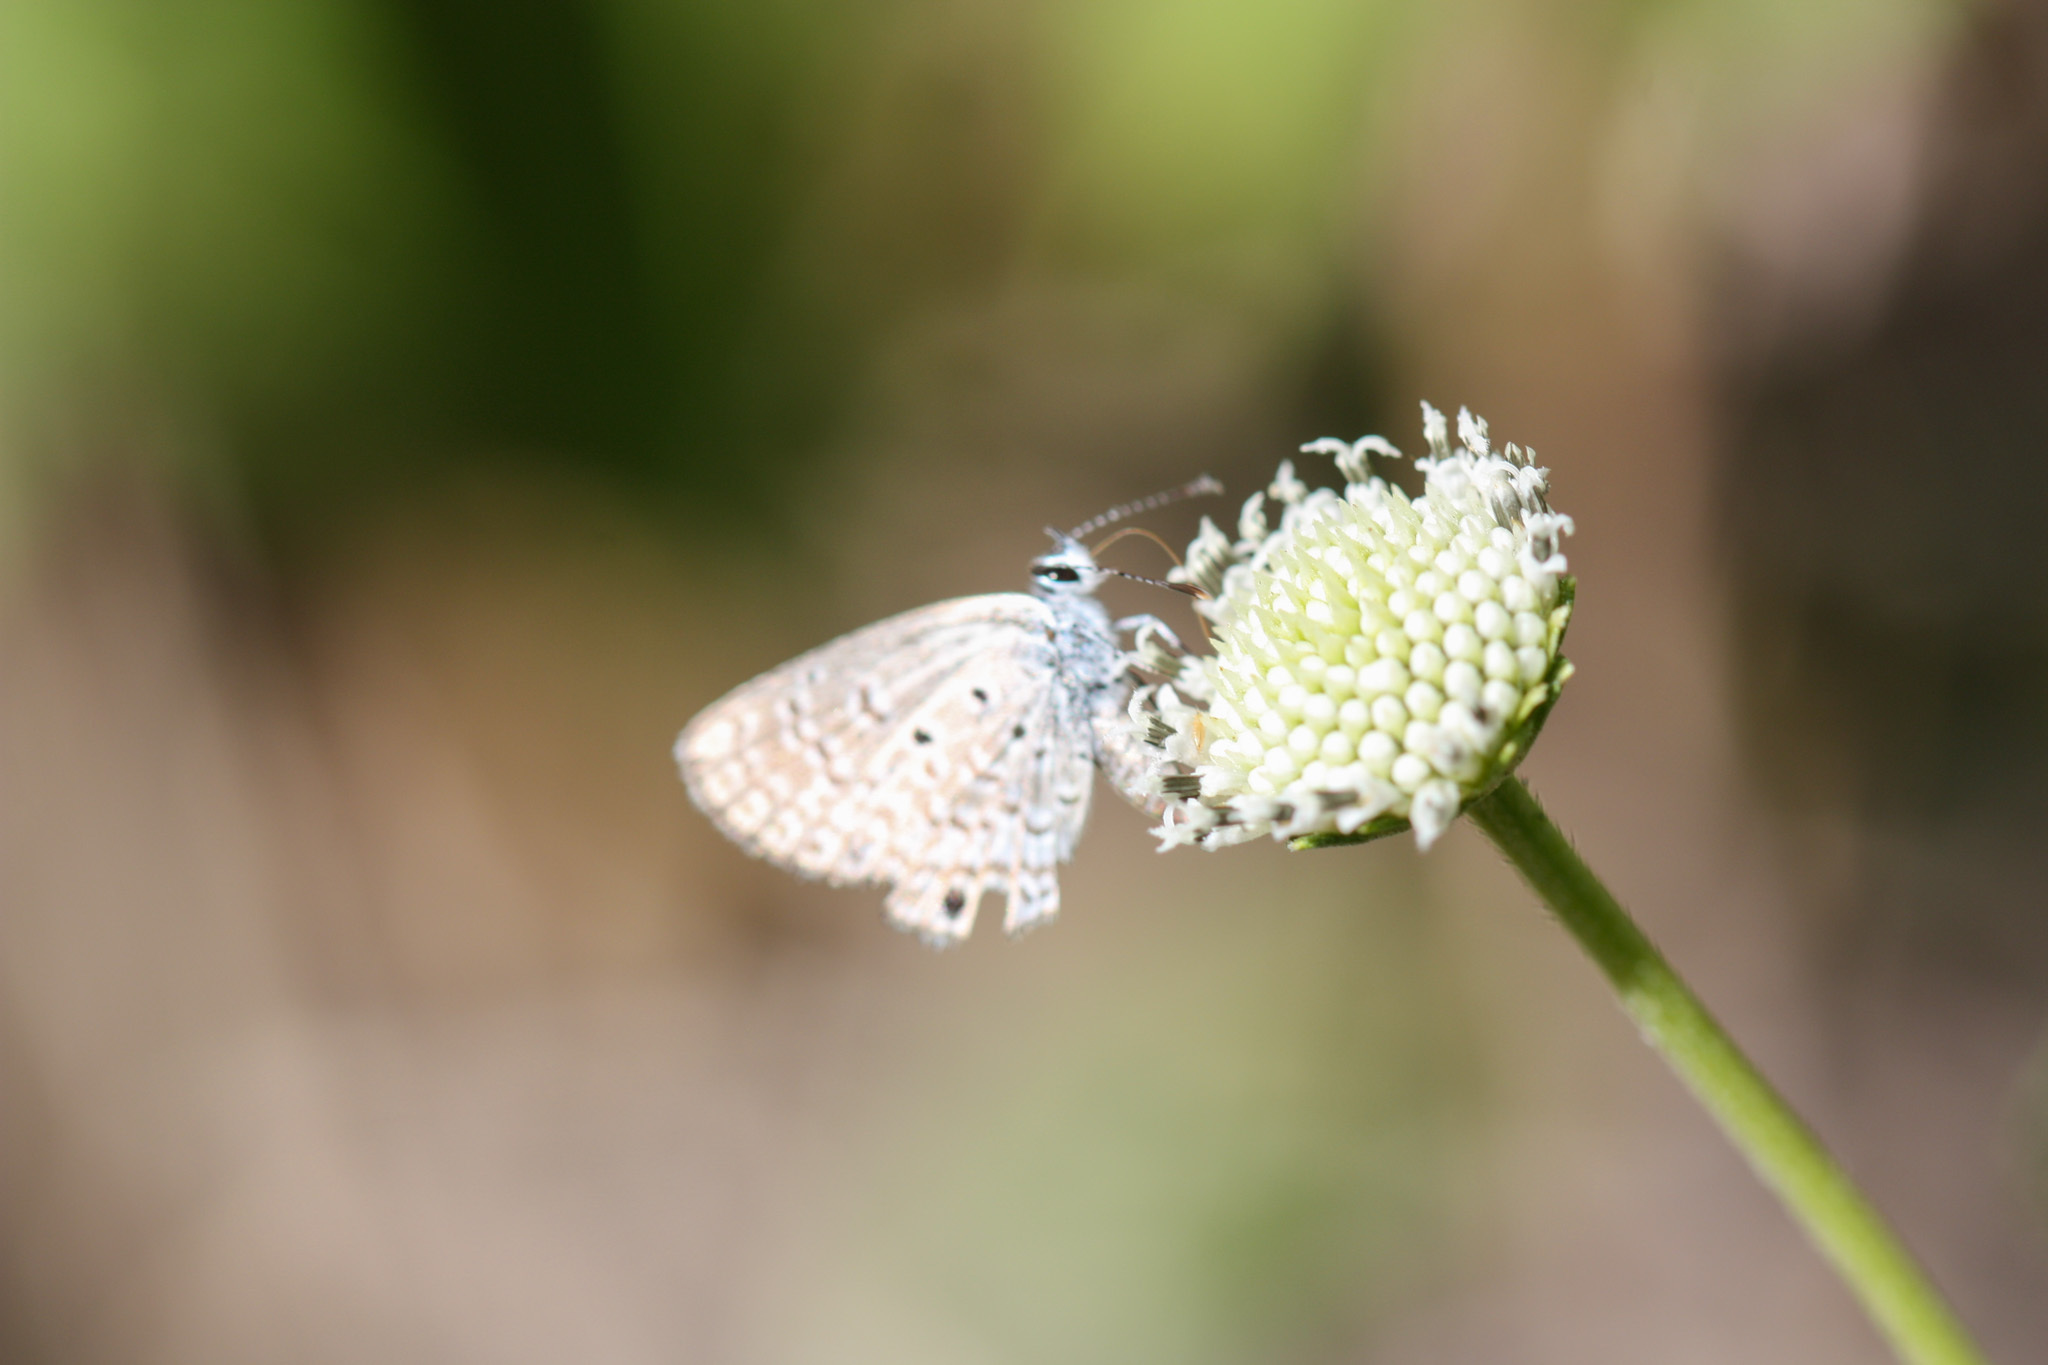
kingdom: Animalia
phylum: Arthropoda
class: Insecta
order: Lepidoptera
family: Lycaenidae
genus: Hemiargus
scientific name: Hemiargus ceraunus
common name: Ceraunus blue
